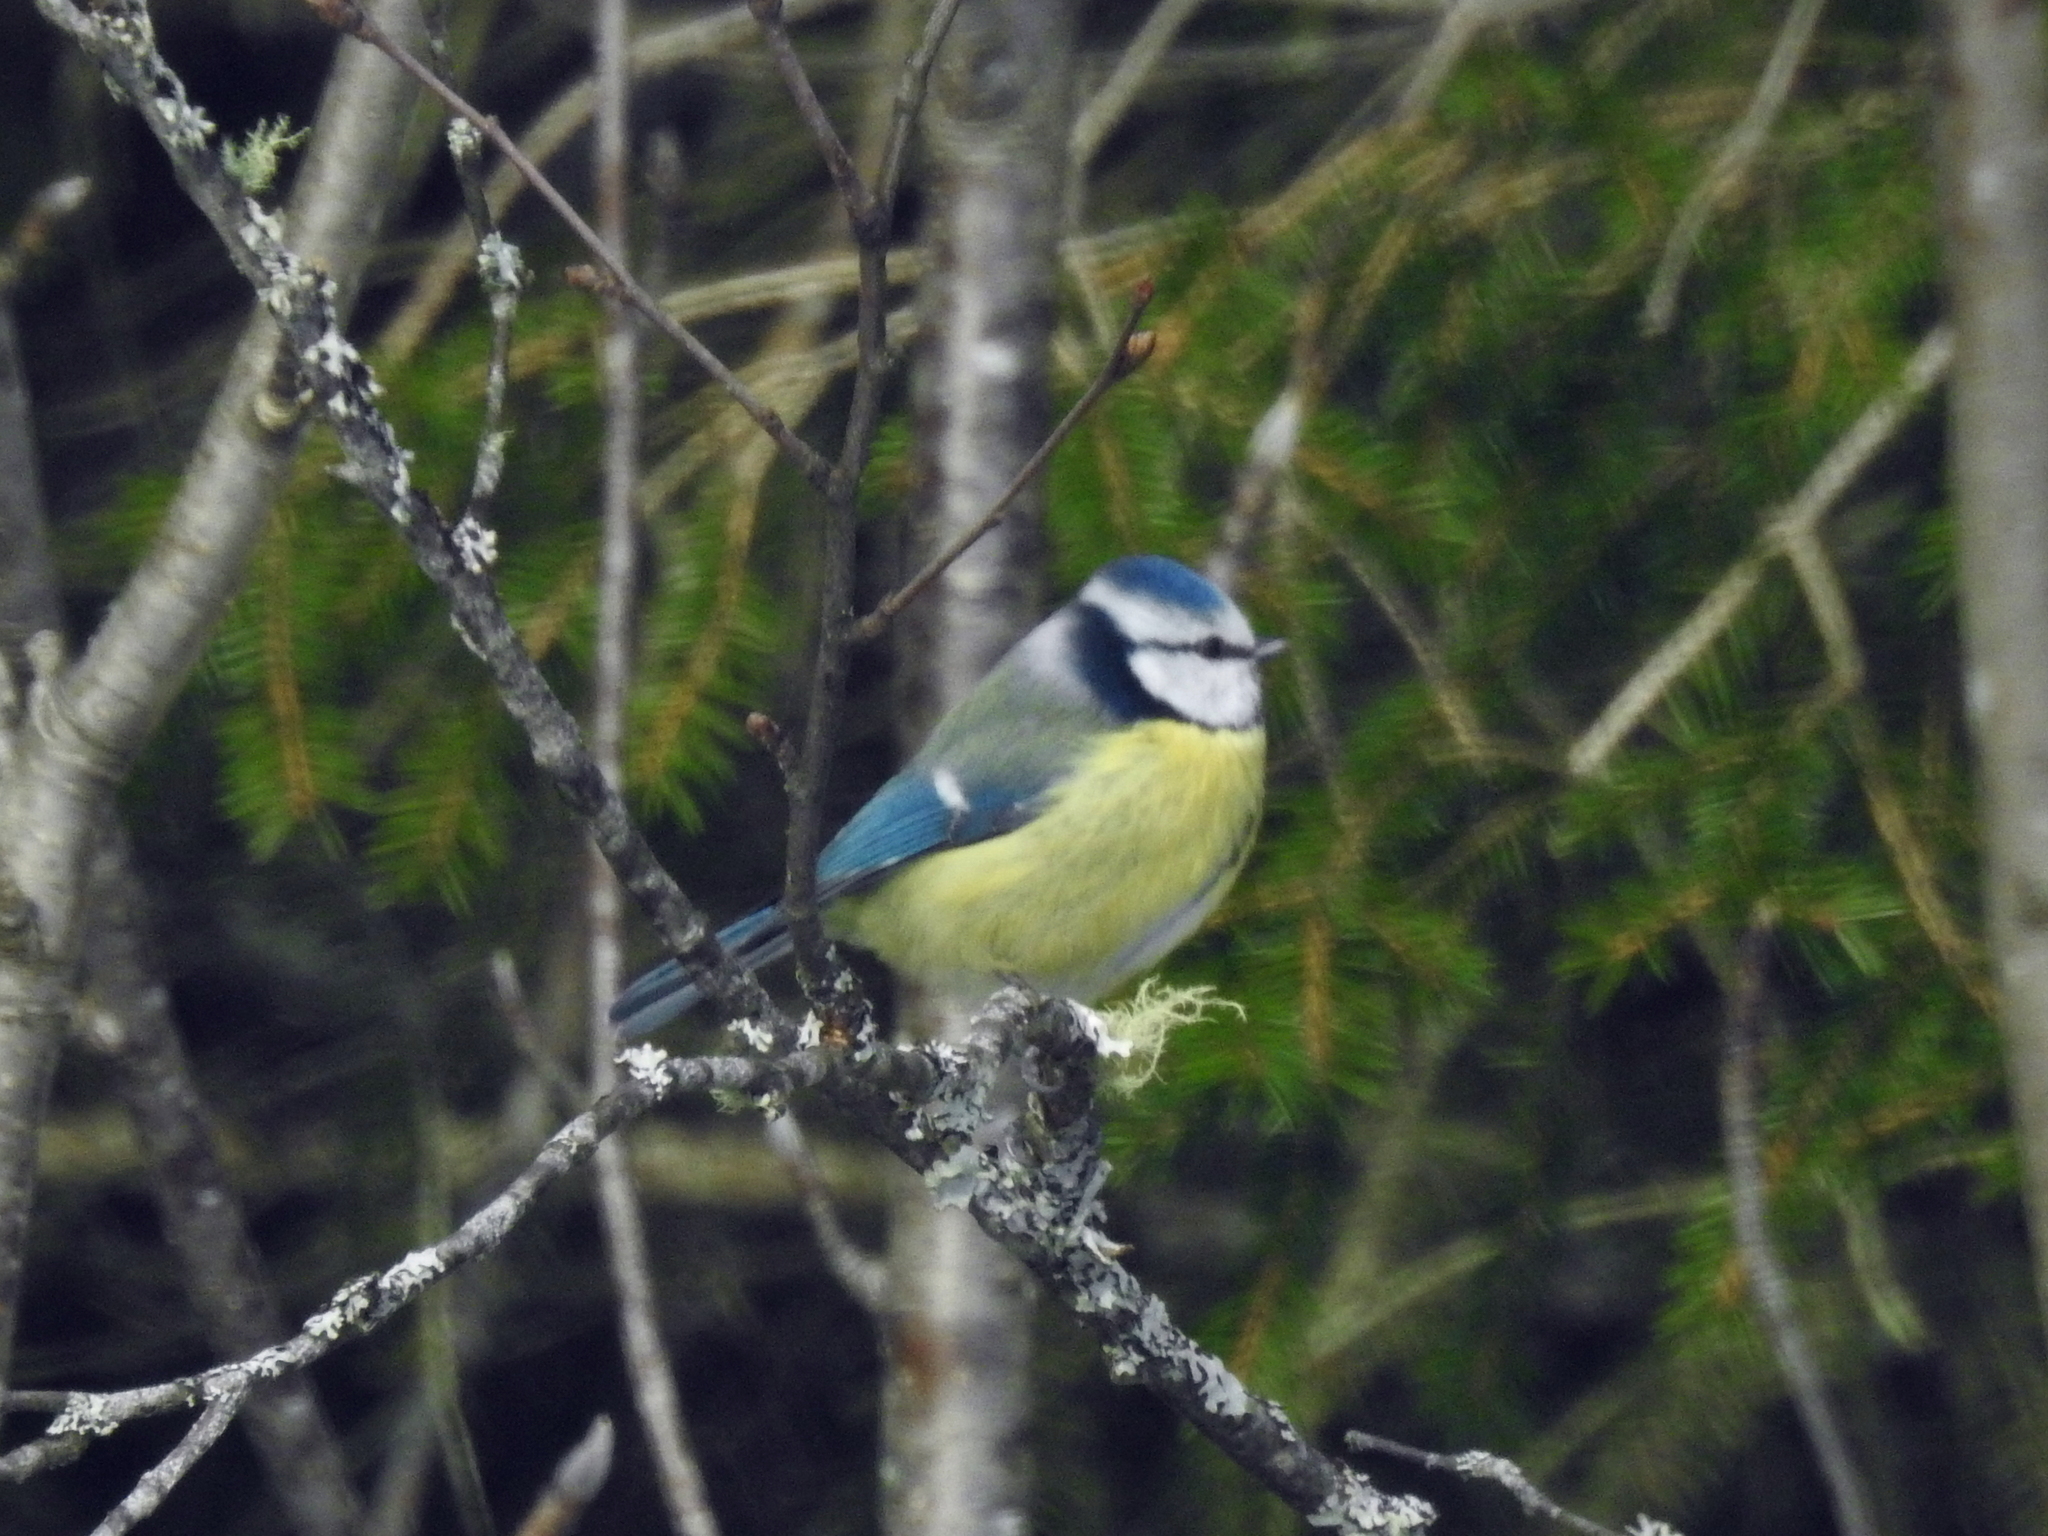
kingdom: Animalia
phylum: Chordata
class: Aves
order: Passeriformes
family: Paridae
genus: Cyanistes
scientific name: Cyanistes caeruleus
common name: Eurasian blue tit
